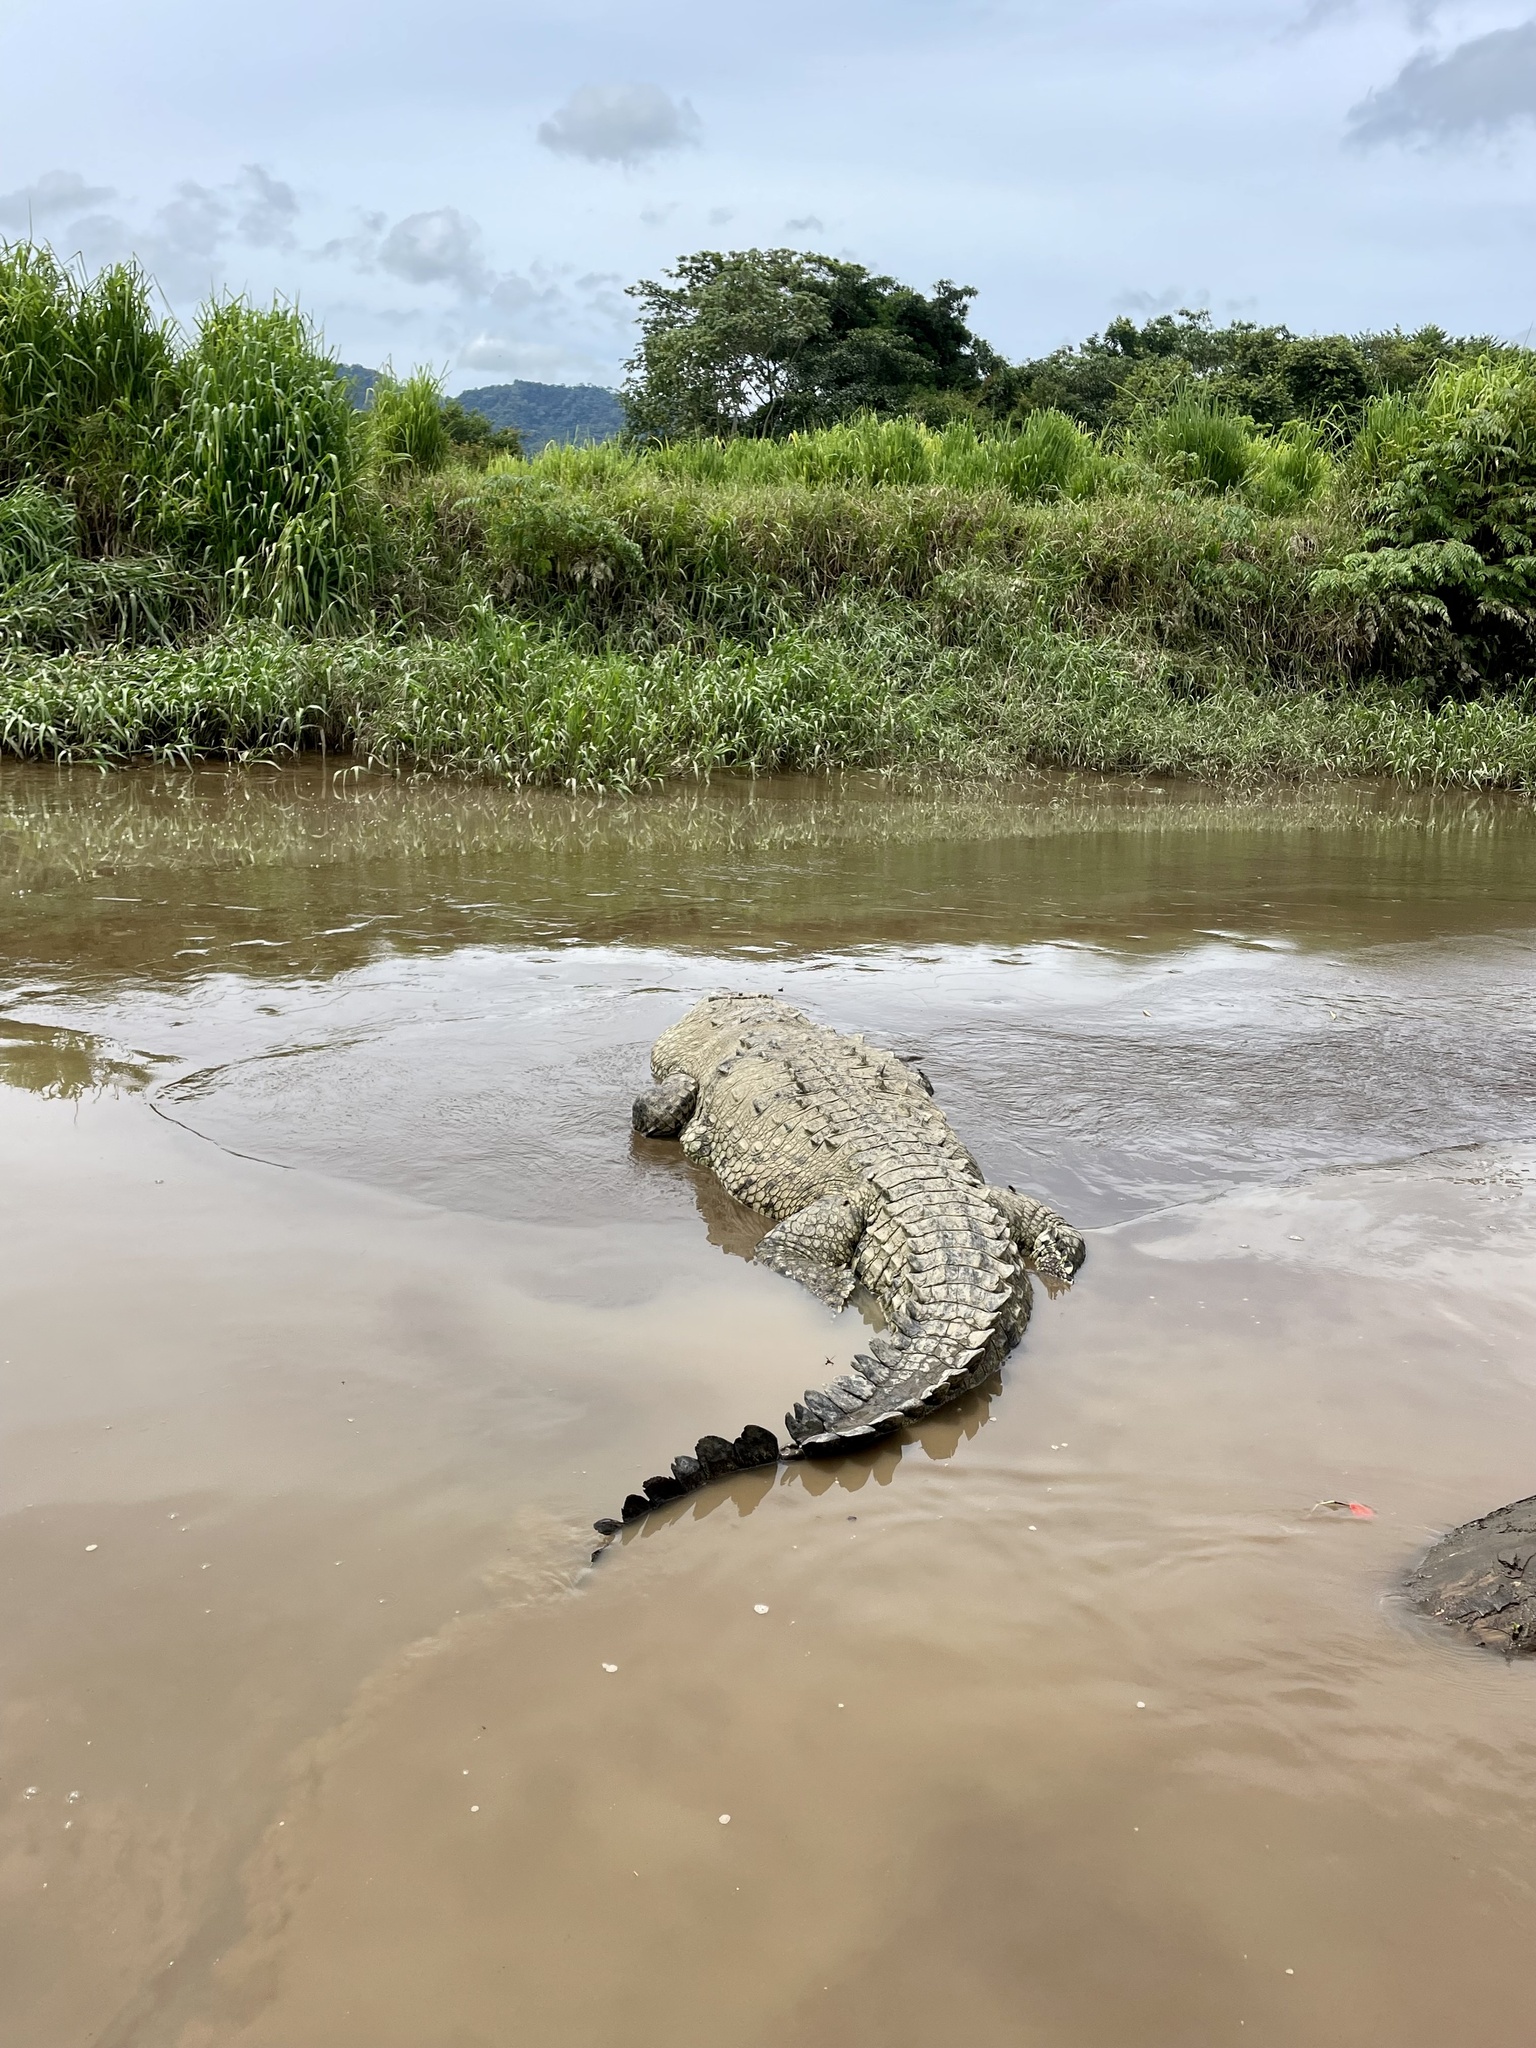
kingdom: Animalia
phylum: Chordata
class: Crocodylia
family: Crocodylidae
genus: Crocodylus
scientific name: Crocodylus acutus
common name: American crocodile
